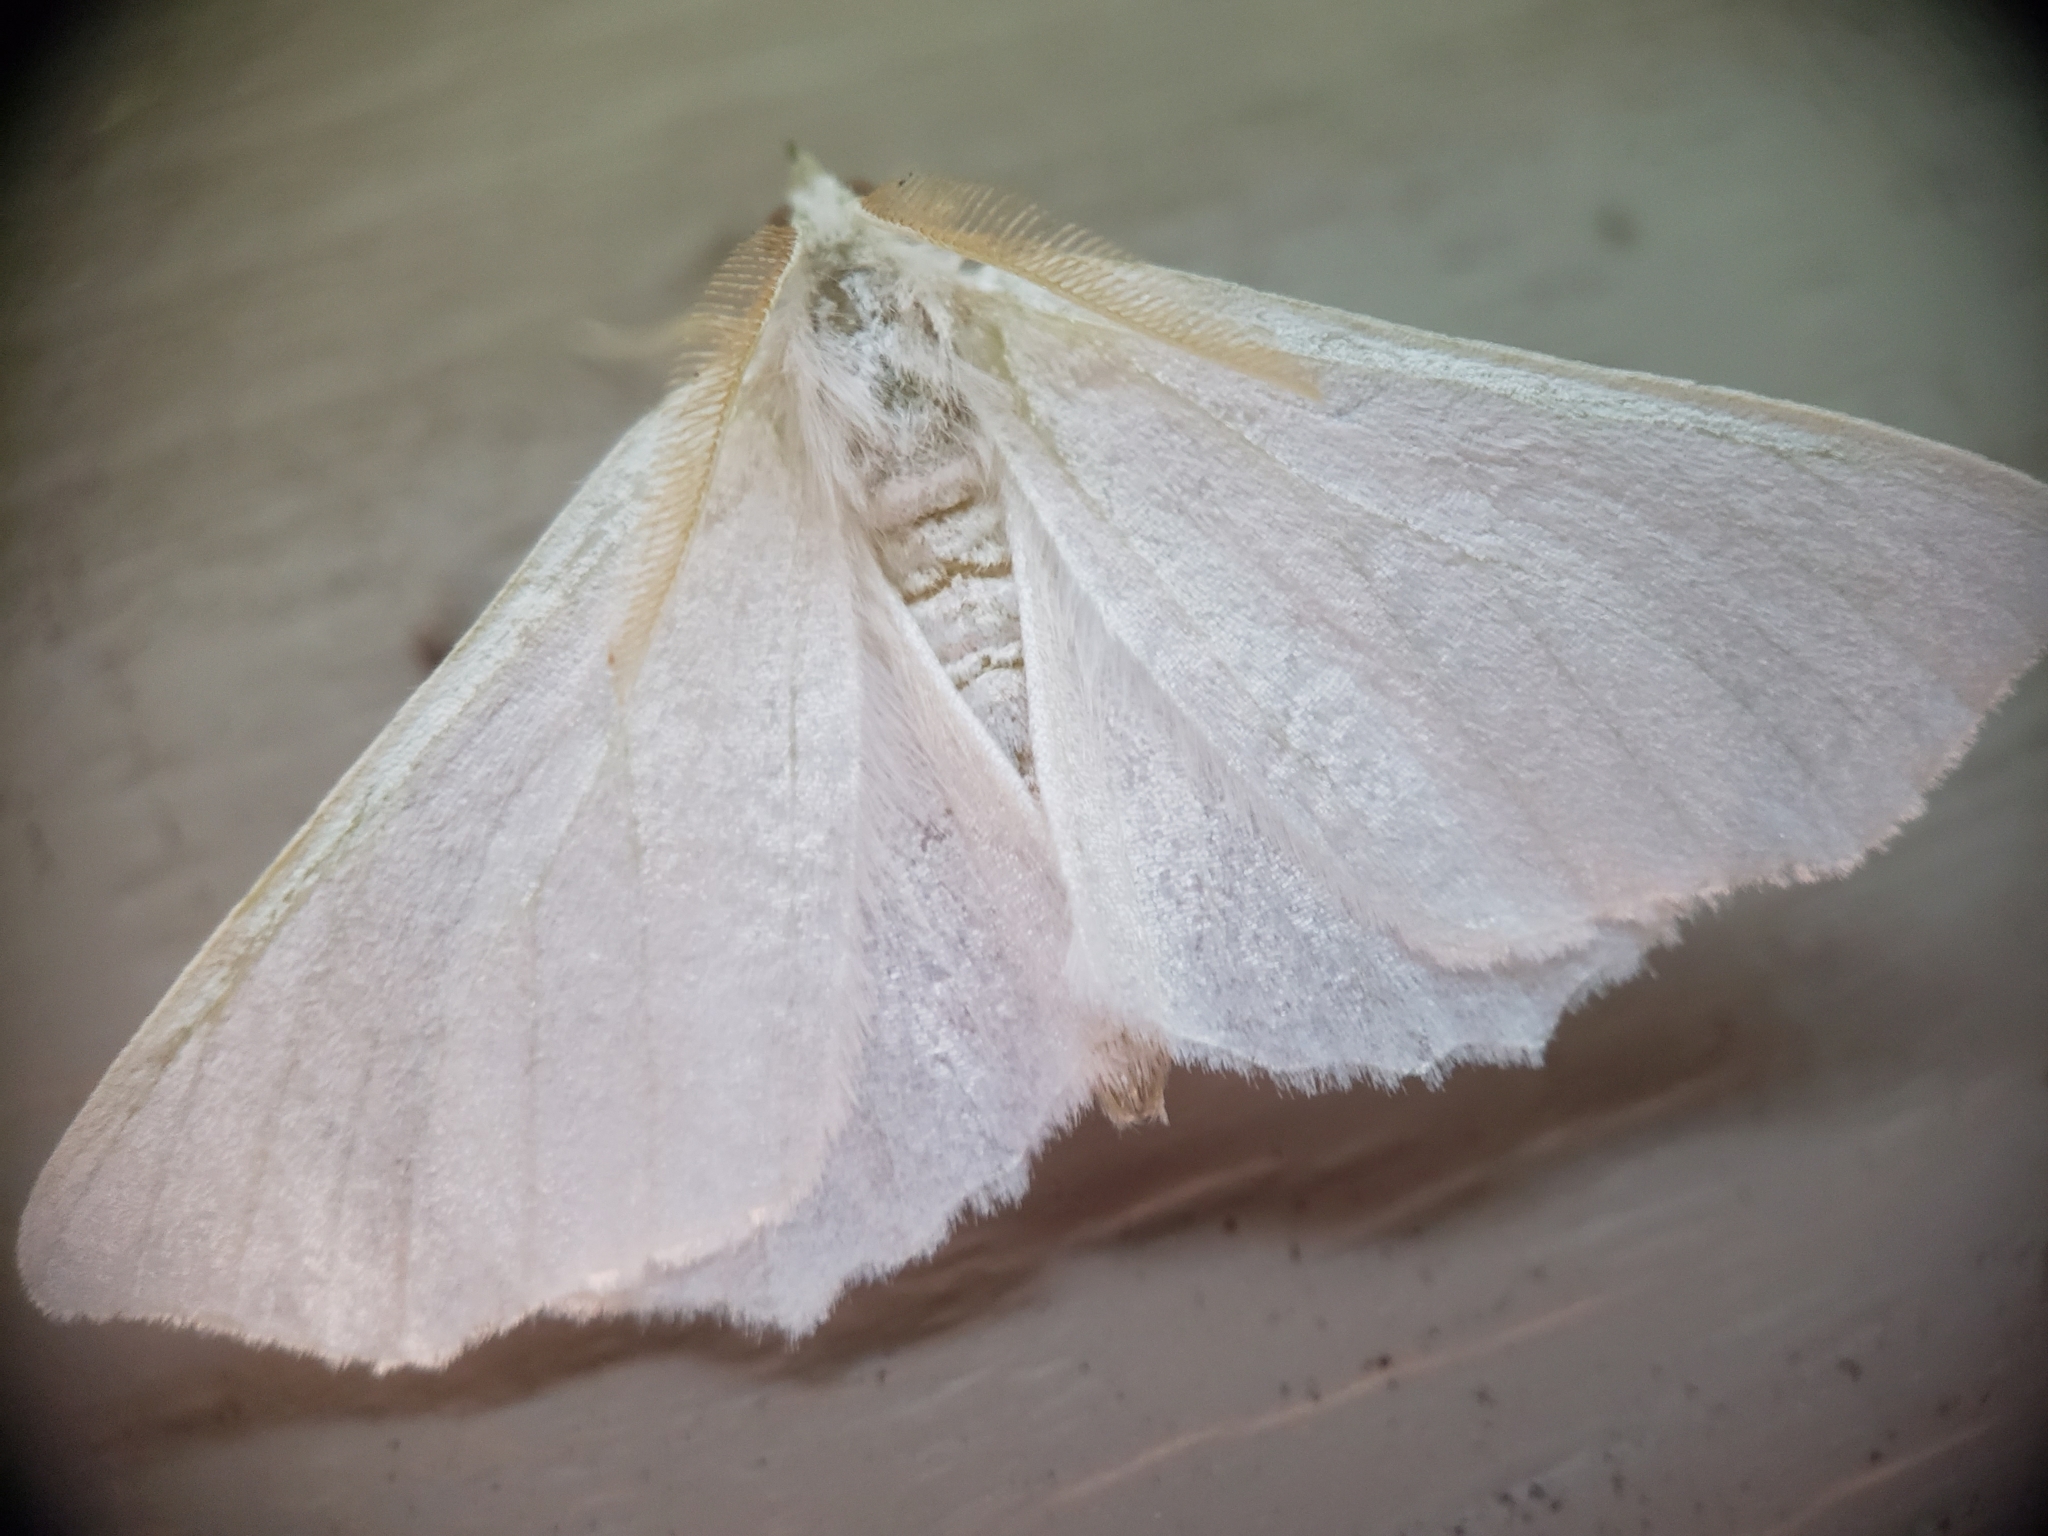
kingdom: Animalia
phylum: Arthropoda
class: Insecta
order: Lepidoptera
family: Geometridae
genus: Ennomos
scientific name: Ennomos subsignaria
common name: Elm spanworm
